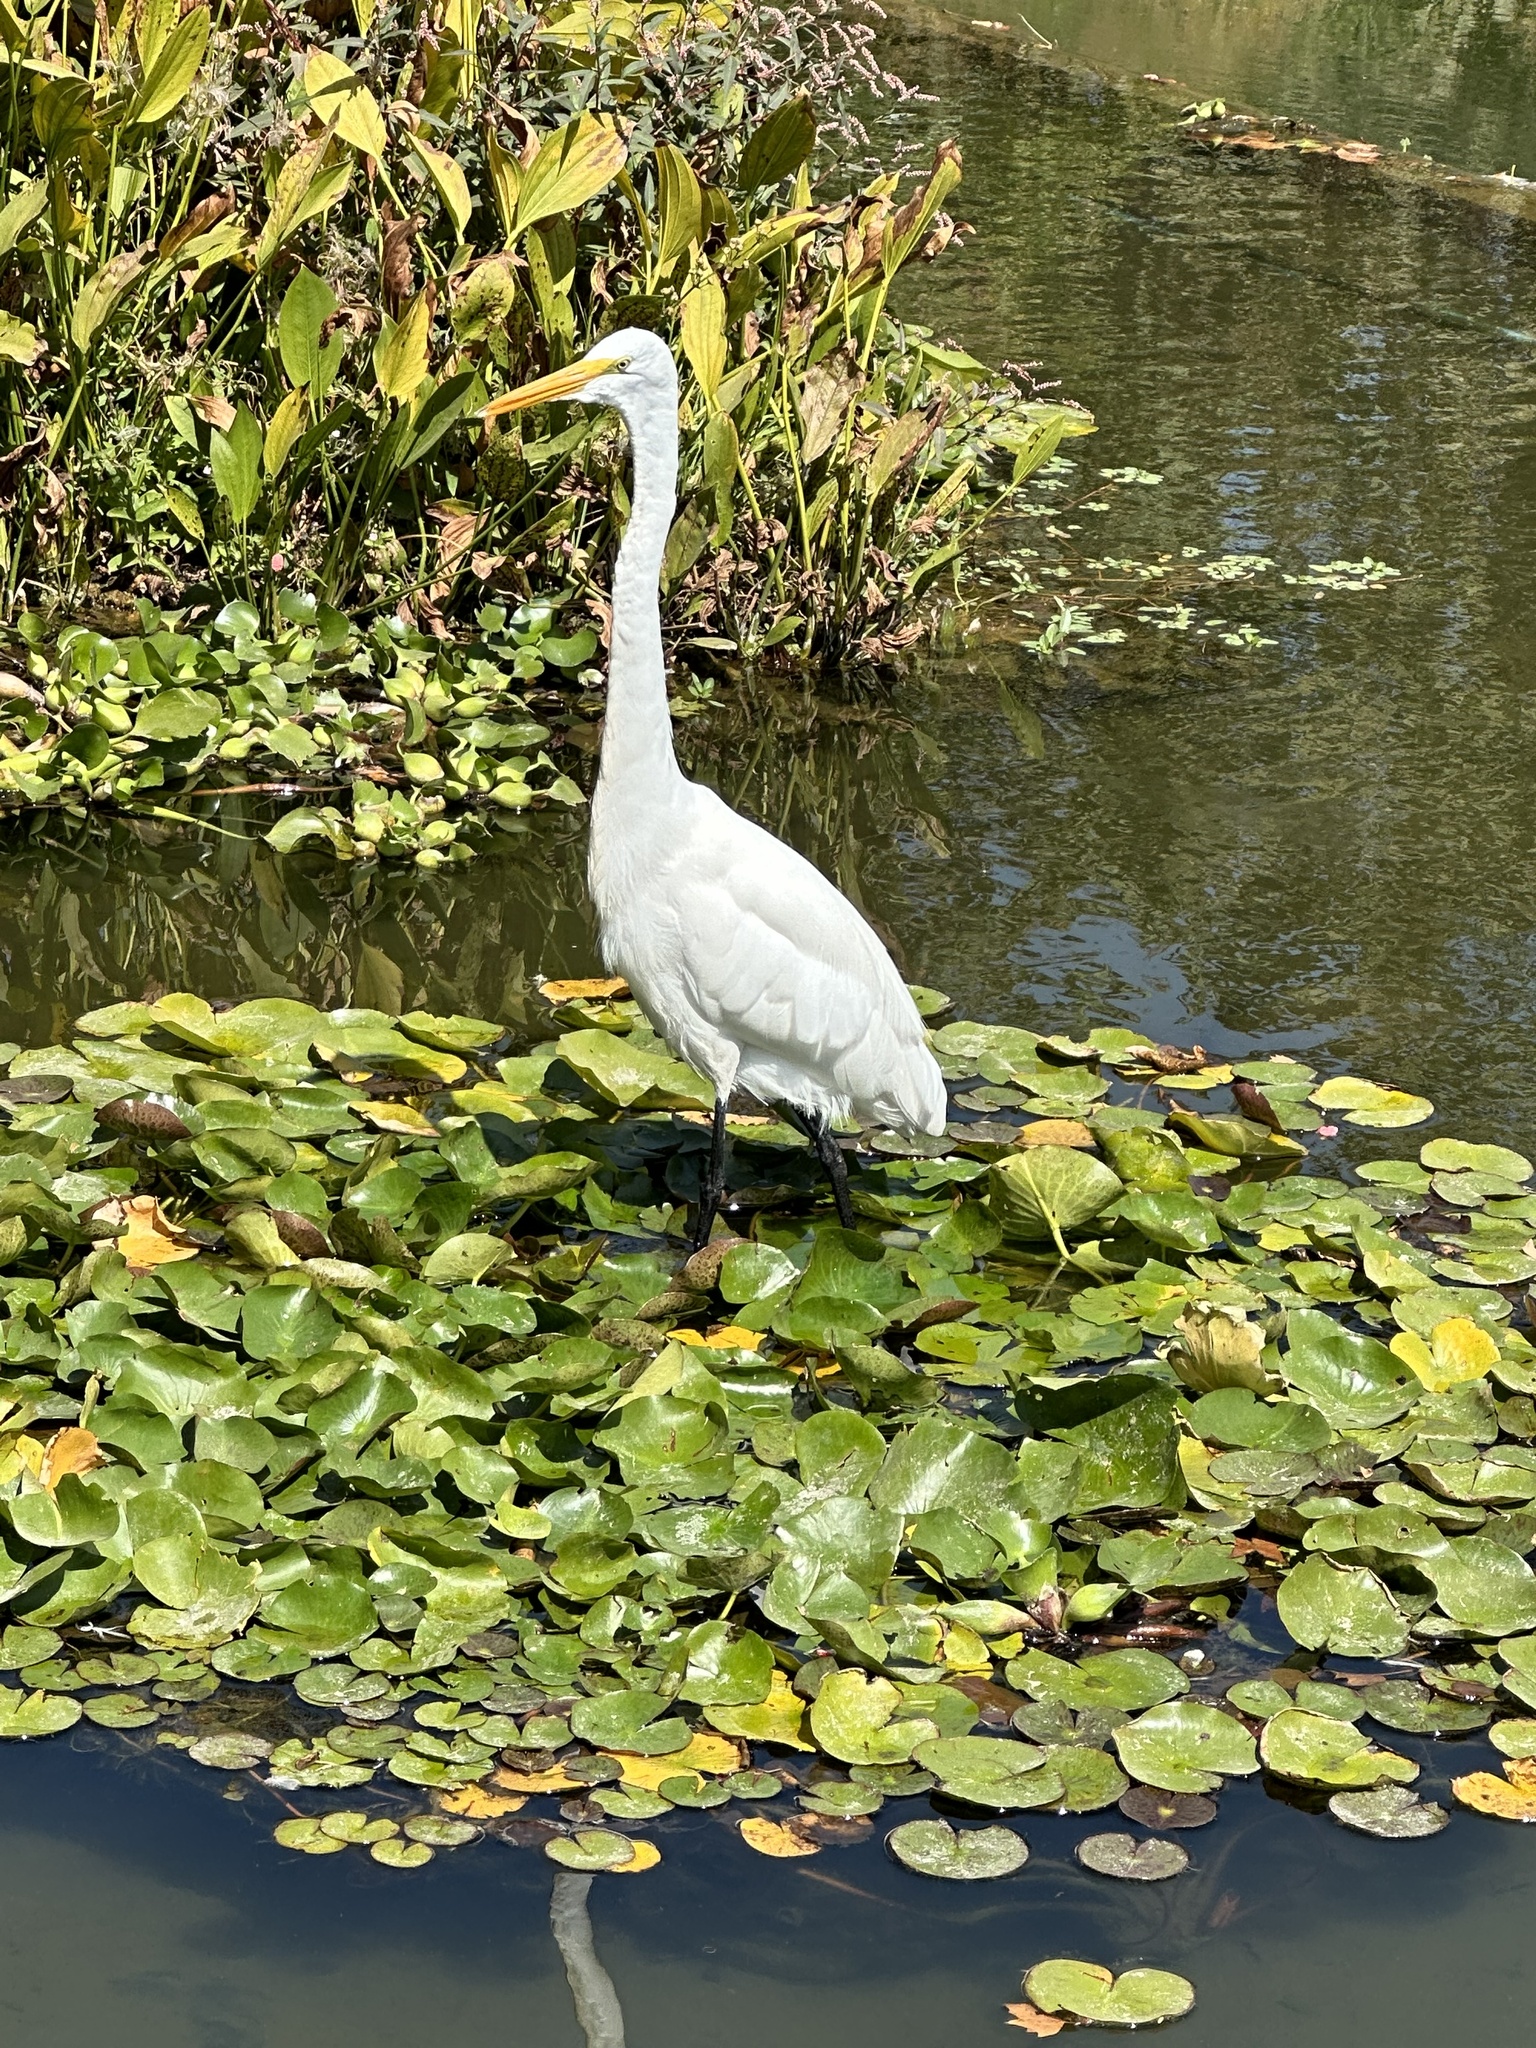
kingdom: Animalia
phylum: Chordata
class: Aves
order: Pelecaniformes
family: Ardeidae
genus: Ardea
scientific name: Ardea alba
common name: Great egret
